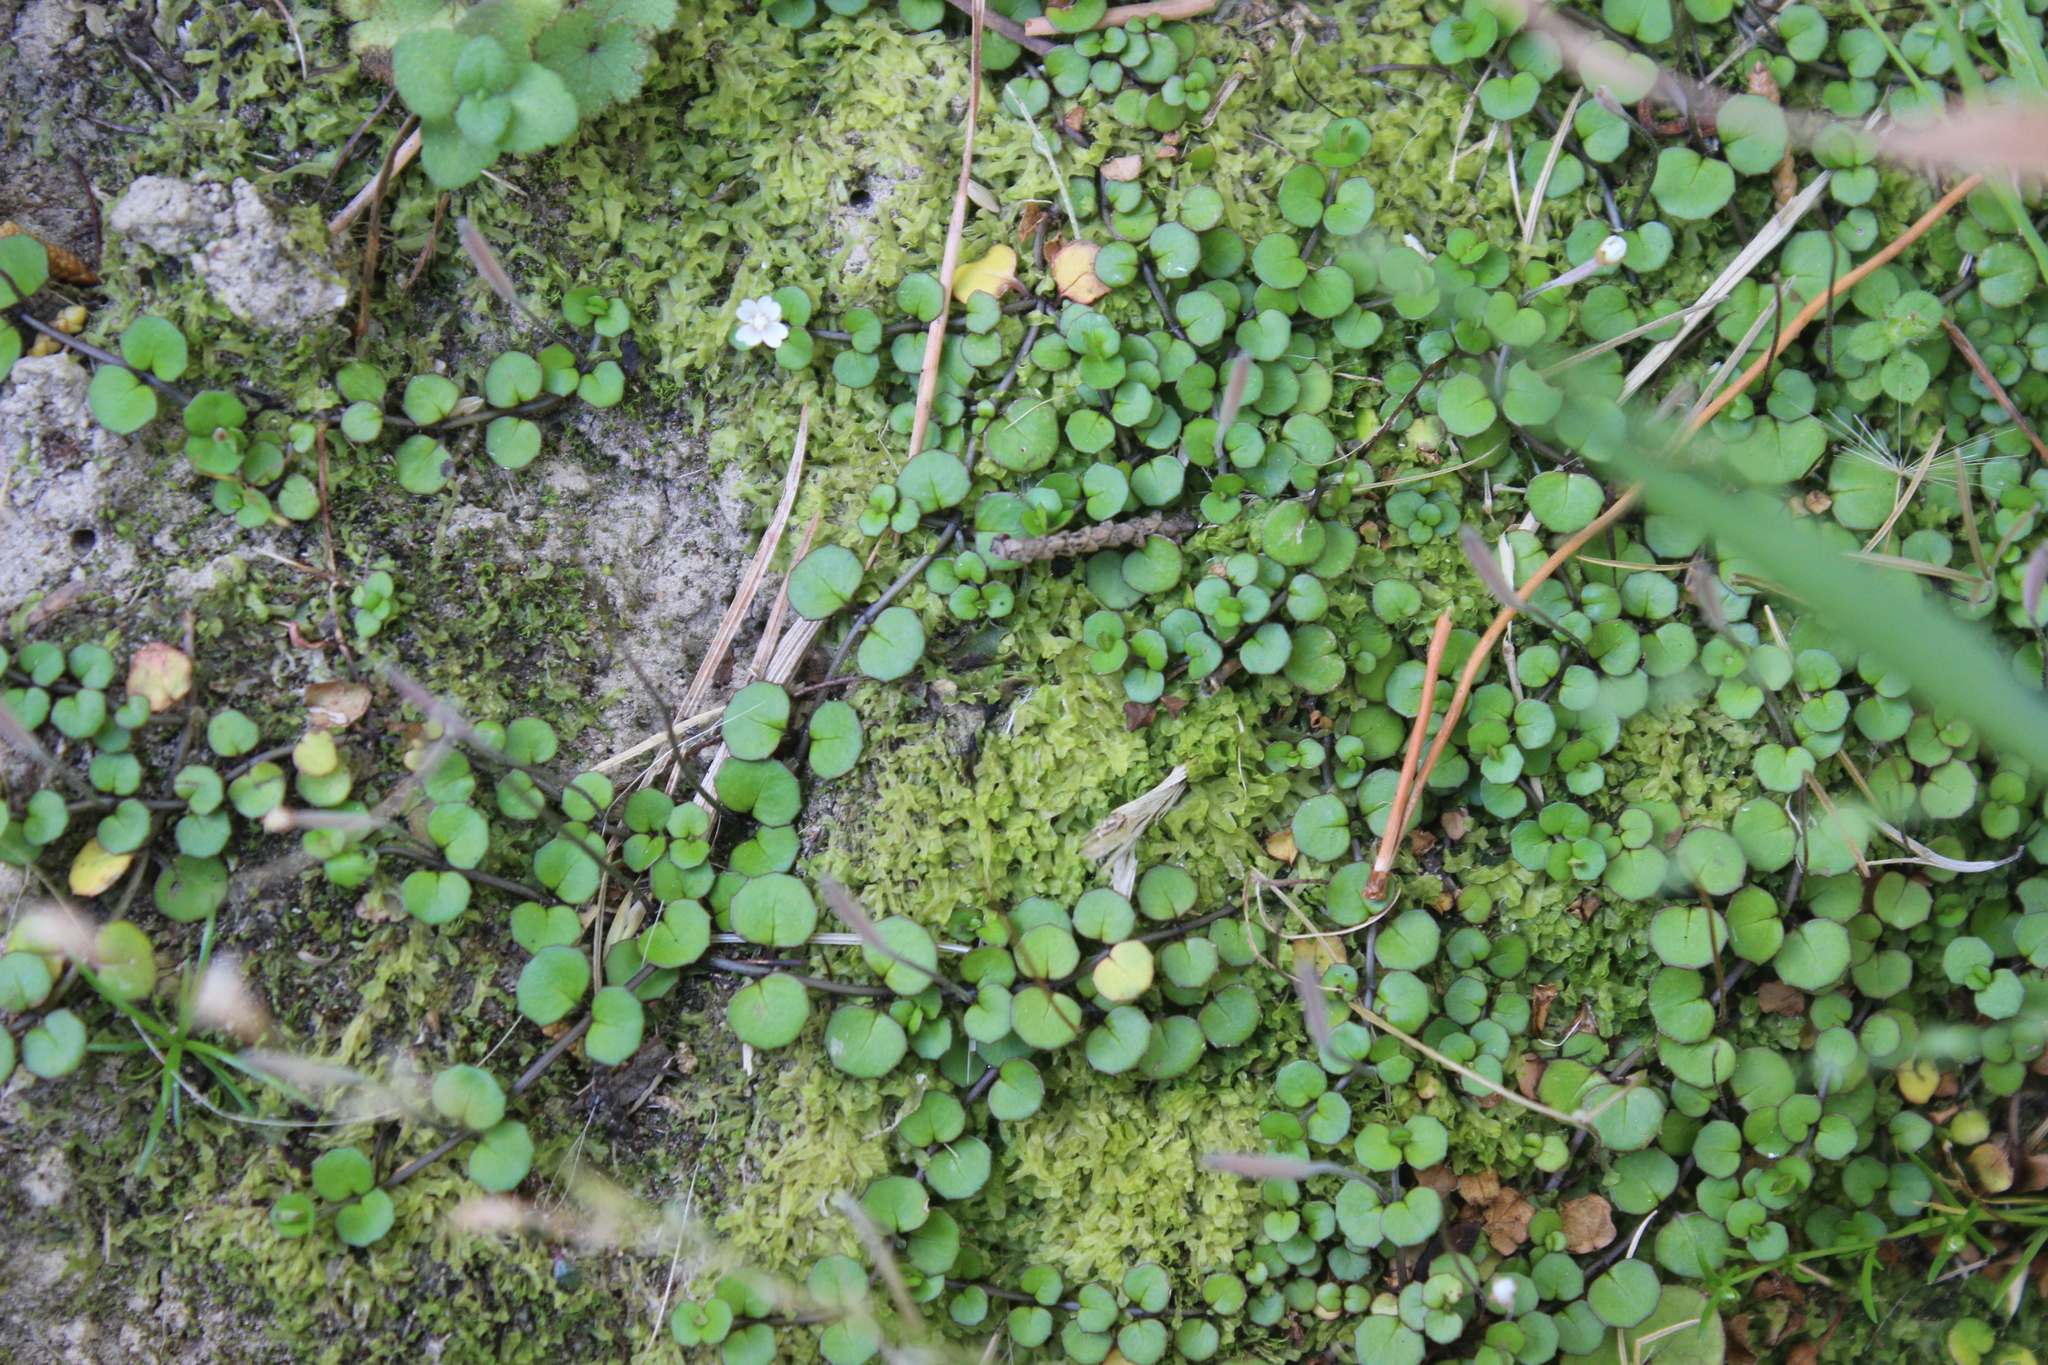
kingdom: Plantae
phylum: Tracheophyta
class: Magnoliopsida
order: Myrtales
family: Onagraceae
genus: Epilobium
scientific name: Epilobium nummularifolium
